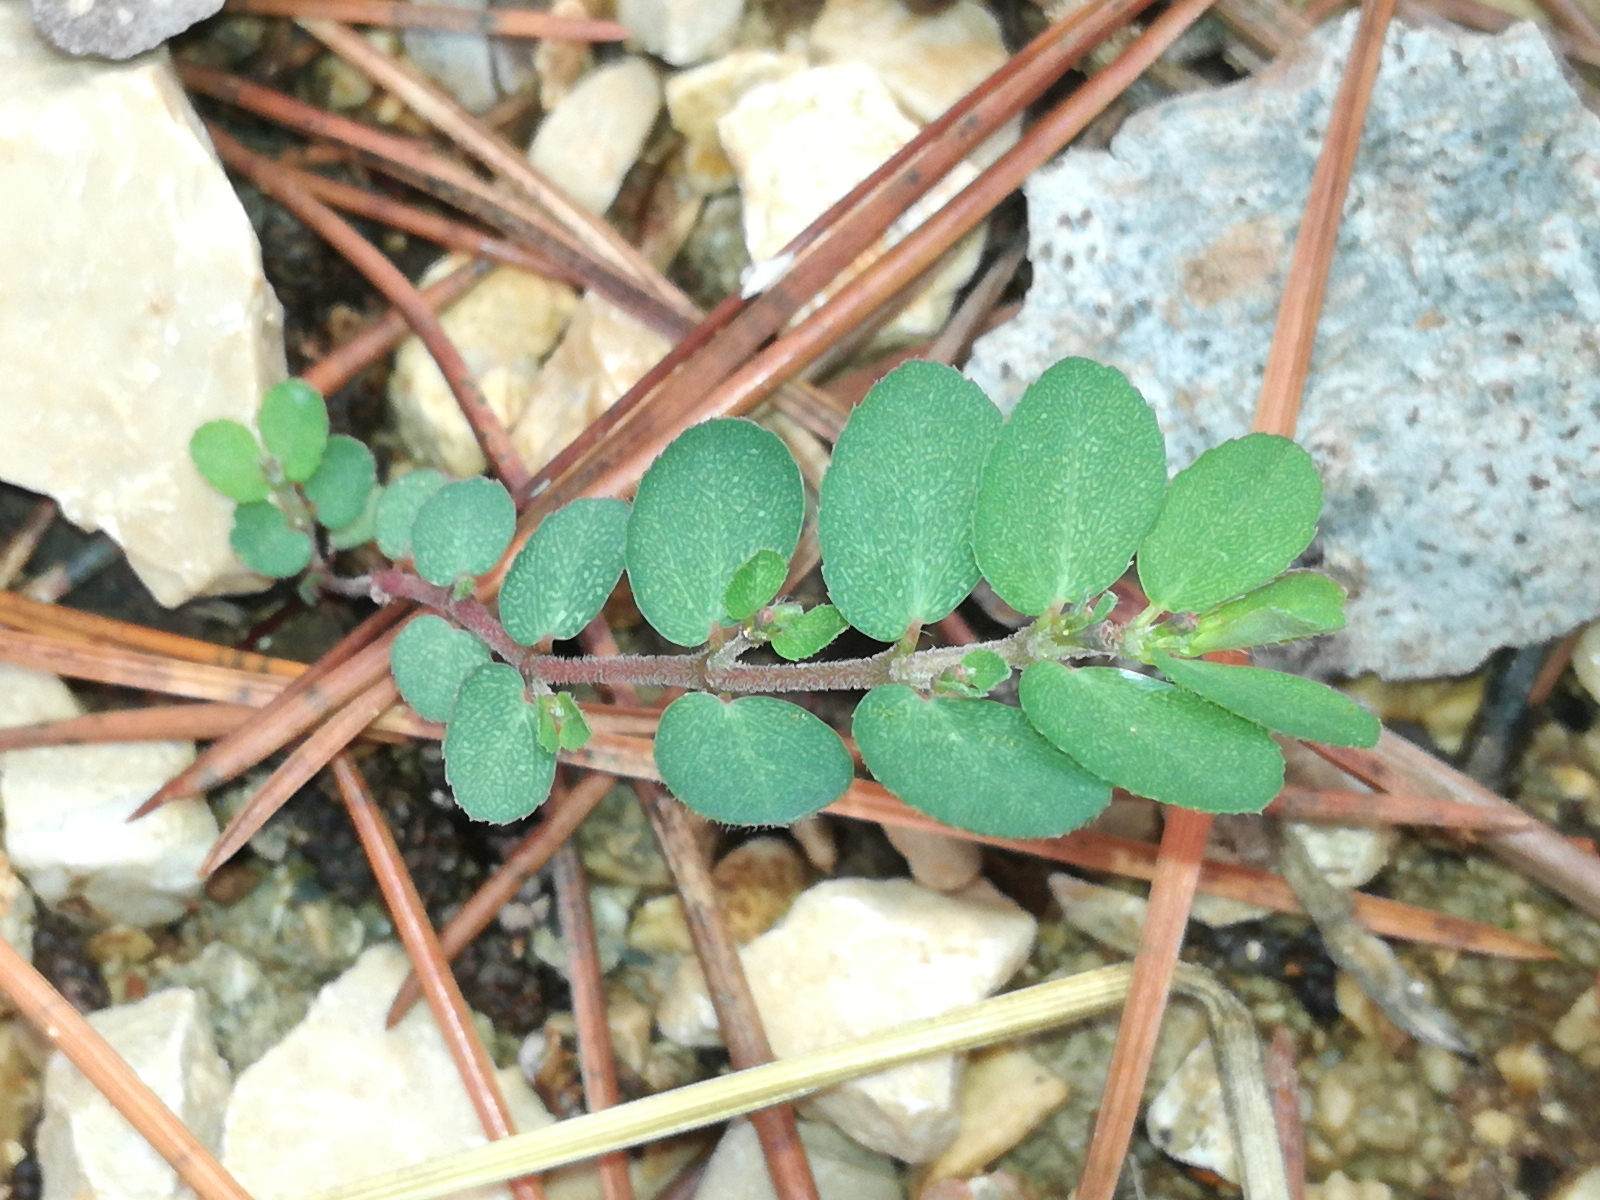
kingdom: Plantae
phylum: Tracheophyta
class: Magnoliopsida
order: Malpighiales
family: Euphorbiaceae
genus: Euphorbia
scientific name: Euphorbia prostrata
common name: Prostrate sandmat
